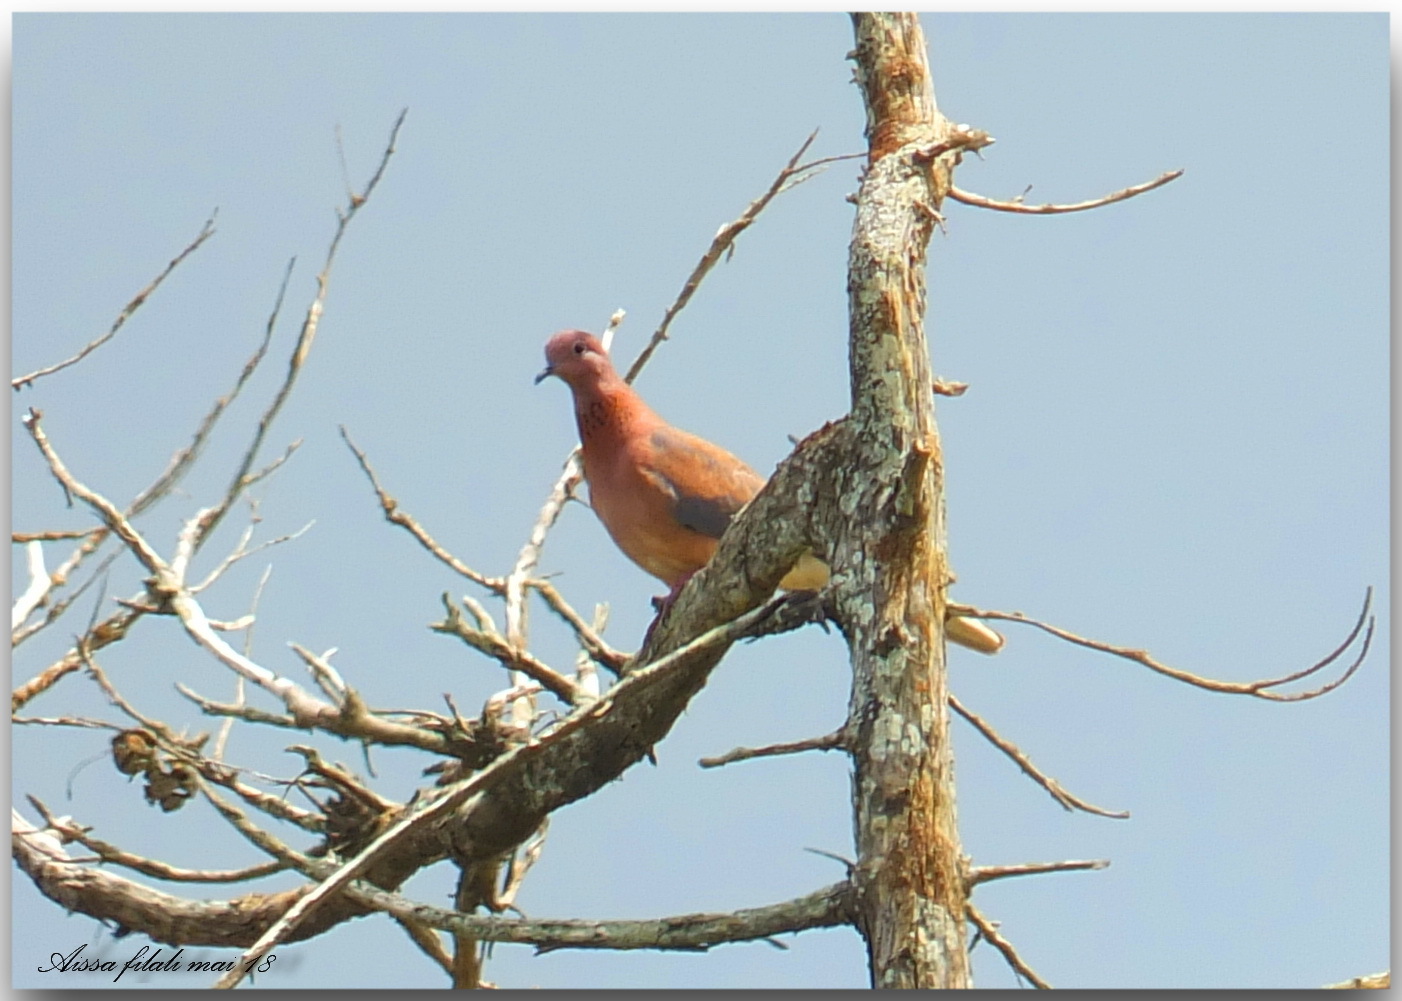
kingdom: Animalia
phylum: Chordata
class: Aves
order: Columbiformes
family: Columbidae
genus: Spilopelia
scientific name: Spilopelia senegalensis
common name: Laughing dove
